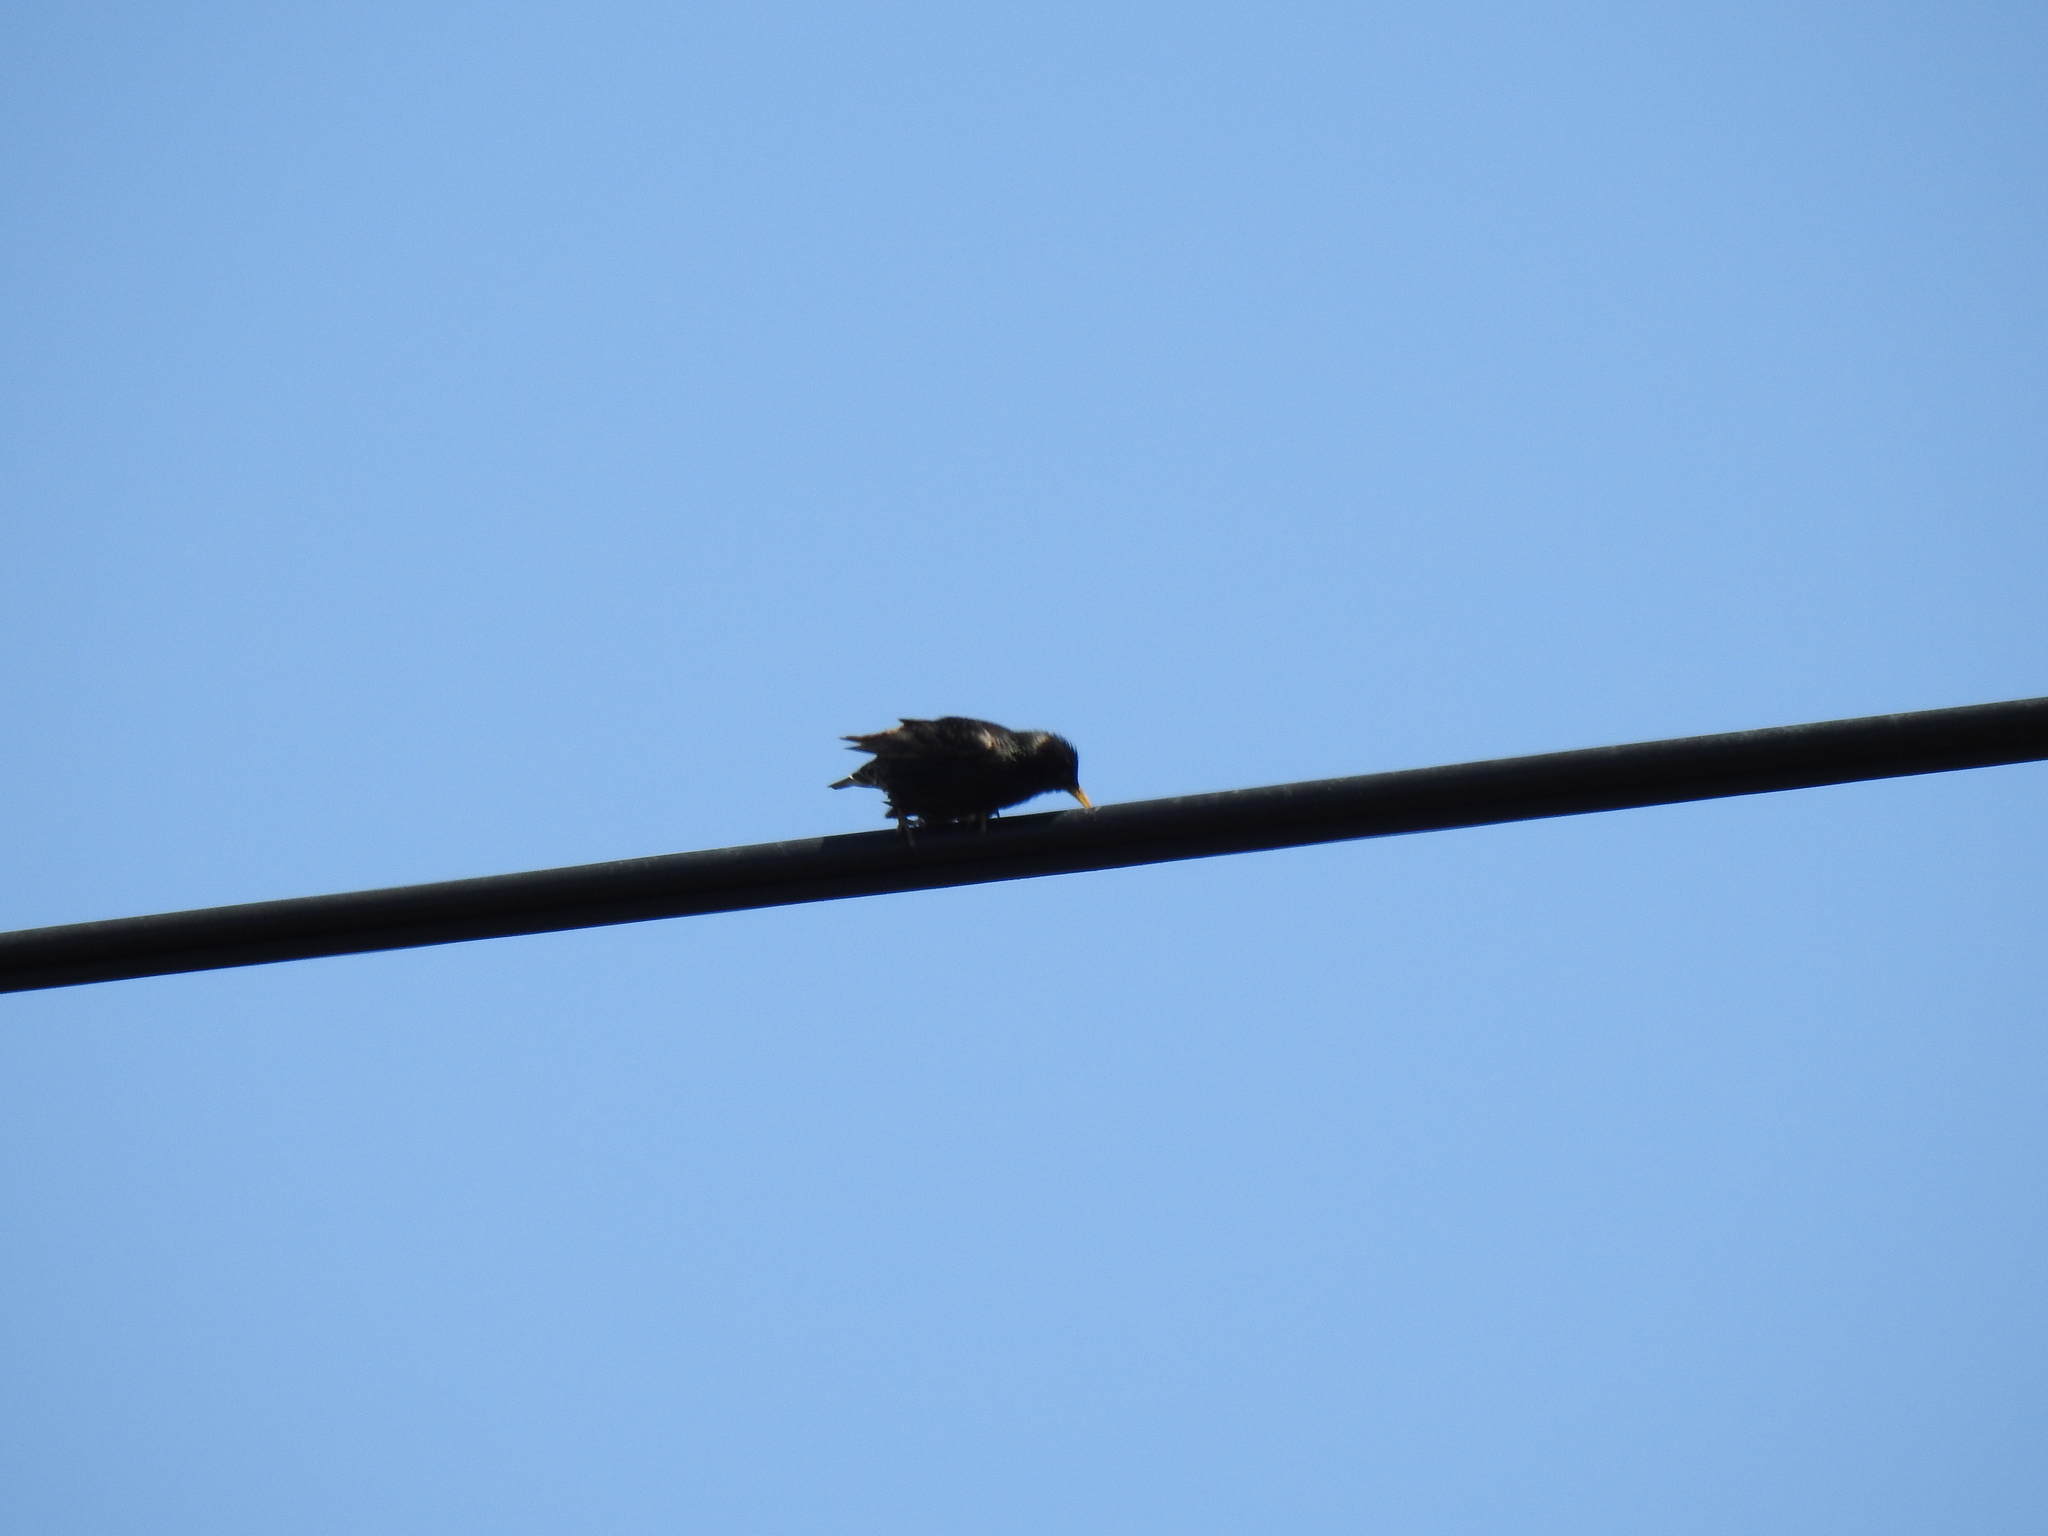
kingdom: Animalia
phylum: Chordata
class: Aves
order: Passeriformes
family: Sturnidae
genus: Sturnus
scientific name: Sturnus vulgaris
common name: Common starling
